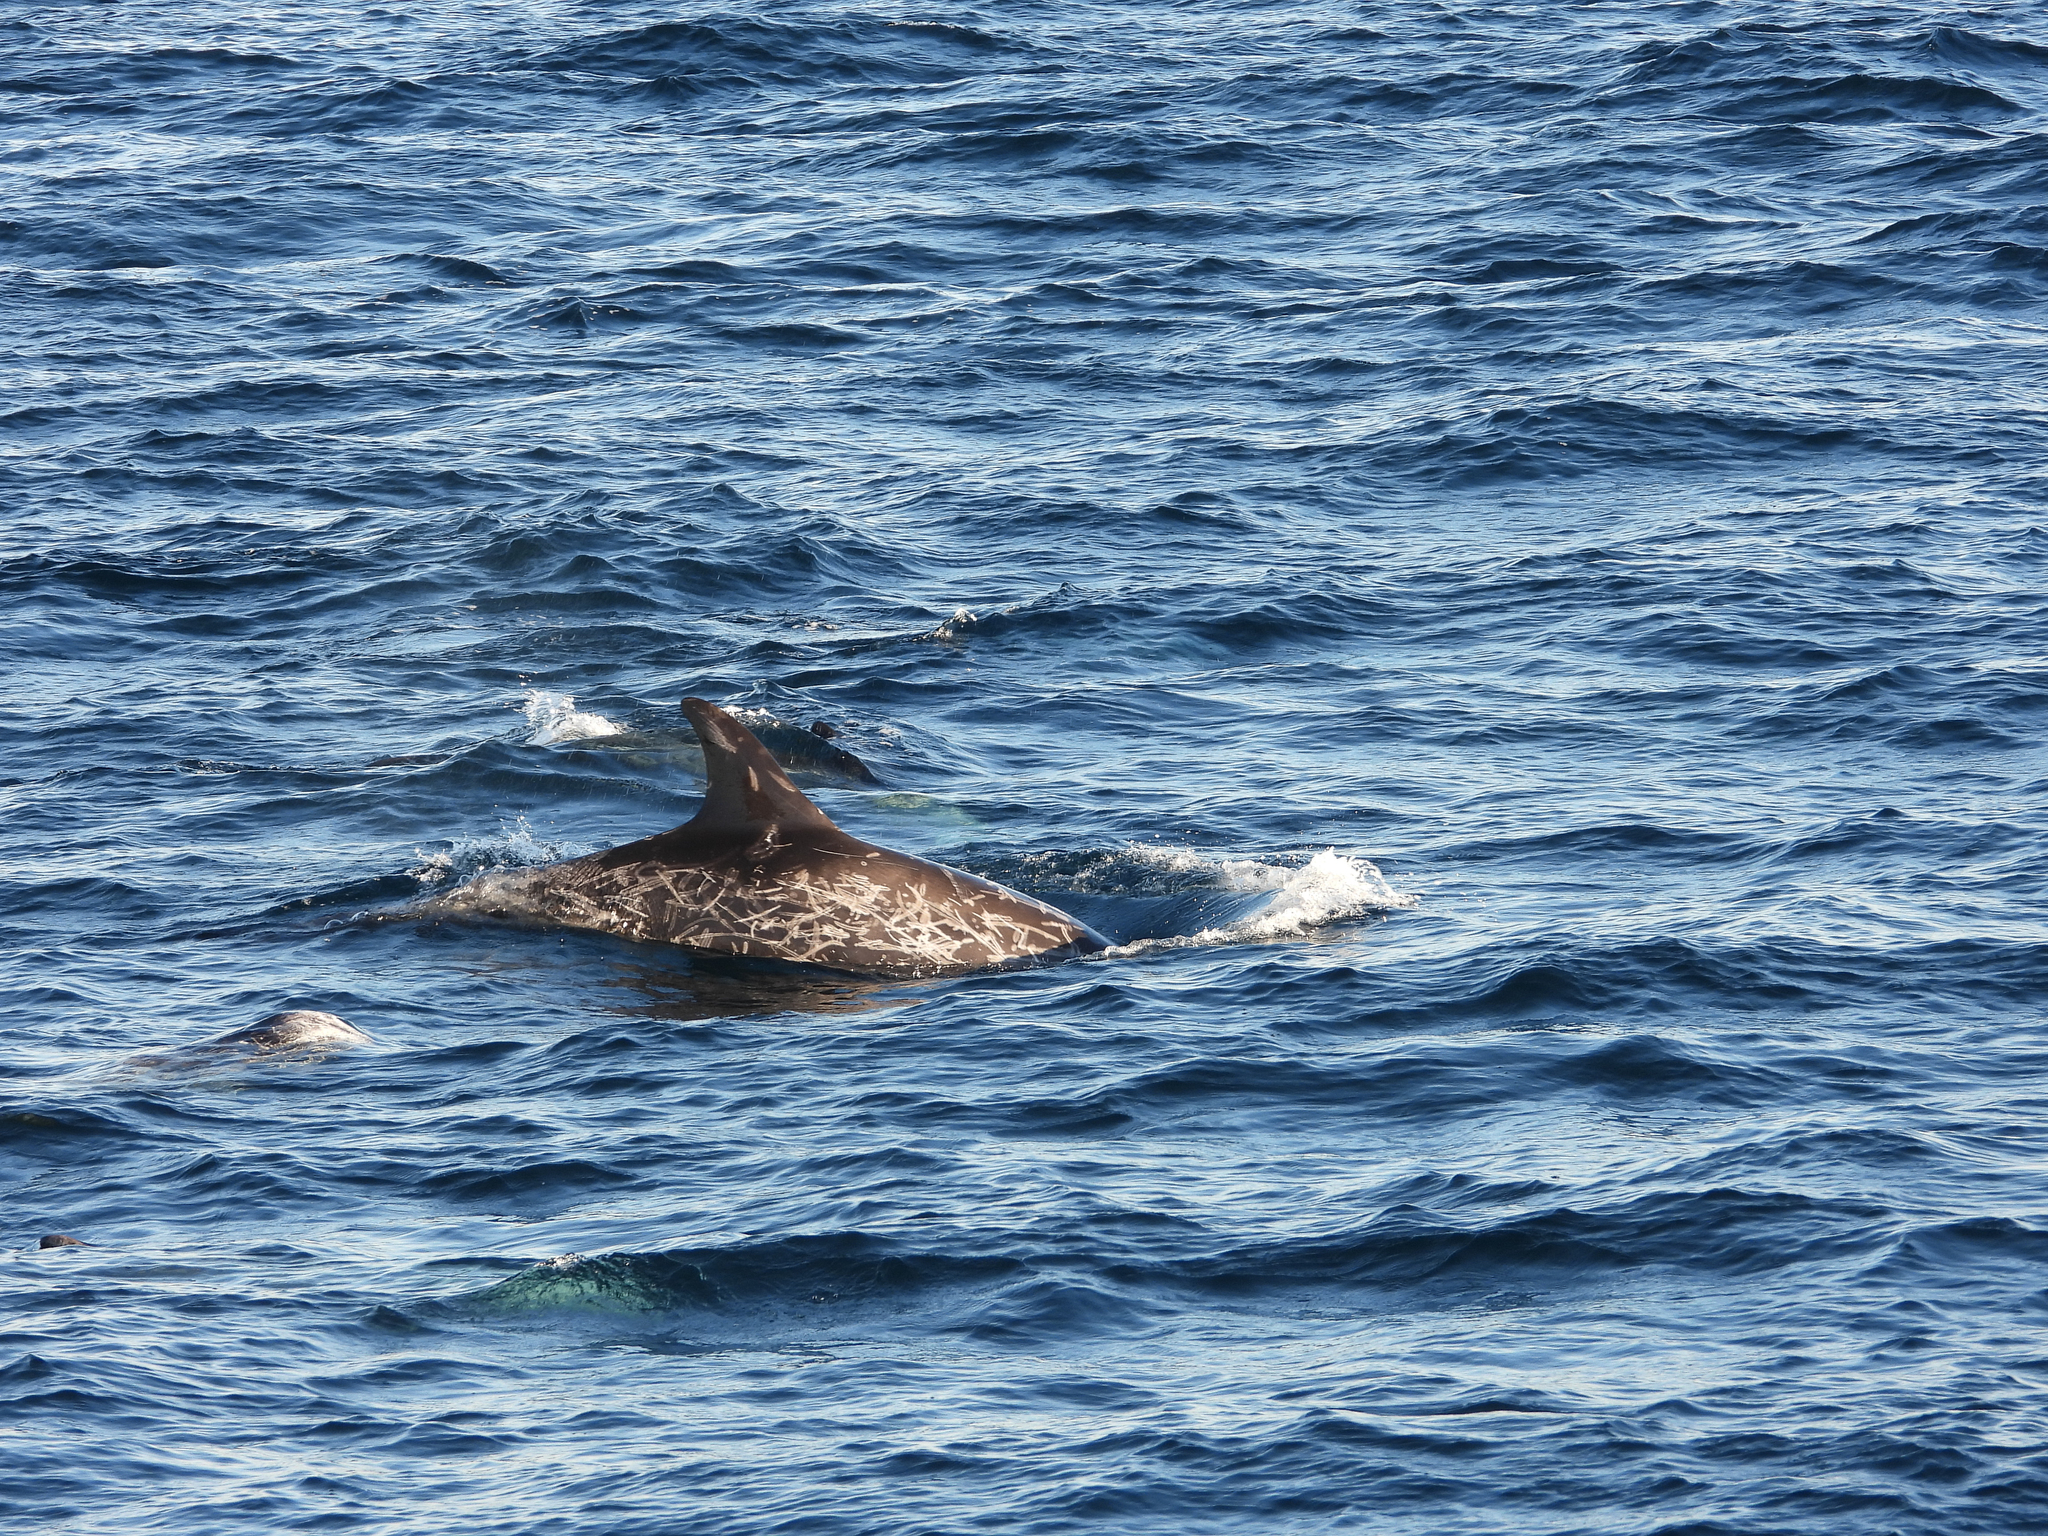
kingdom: Animalia
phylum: Chordata
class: Mammalia
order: Cetacea
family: Delphinidae
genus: Grampus
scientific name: Grampus griseus
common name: Risso's dolphin
